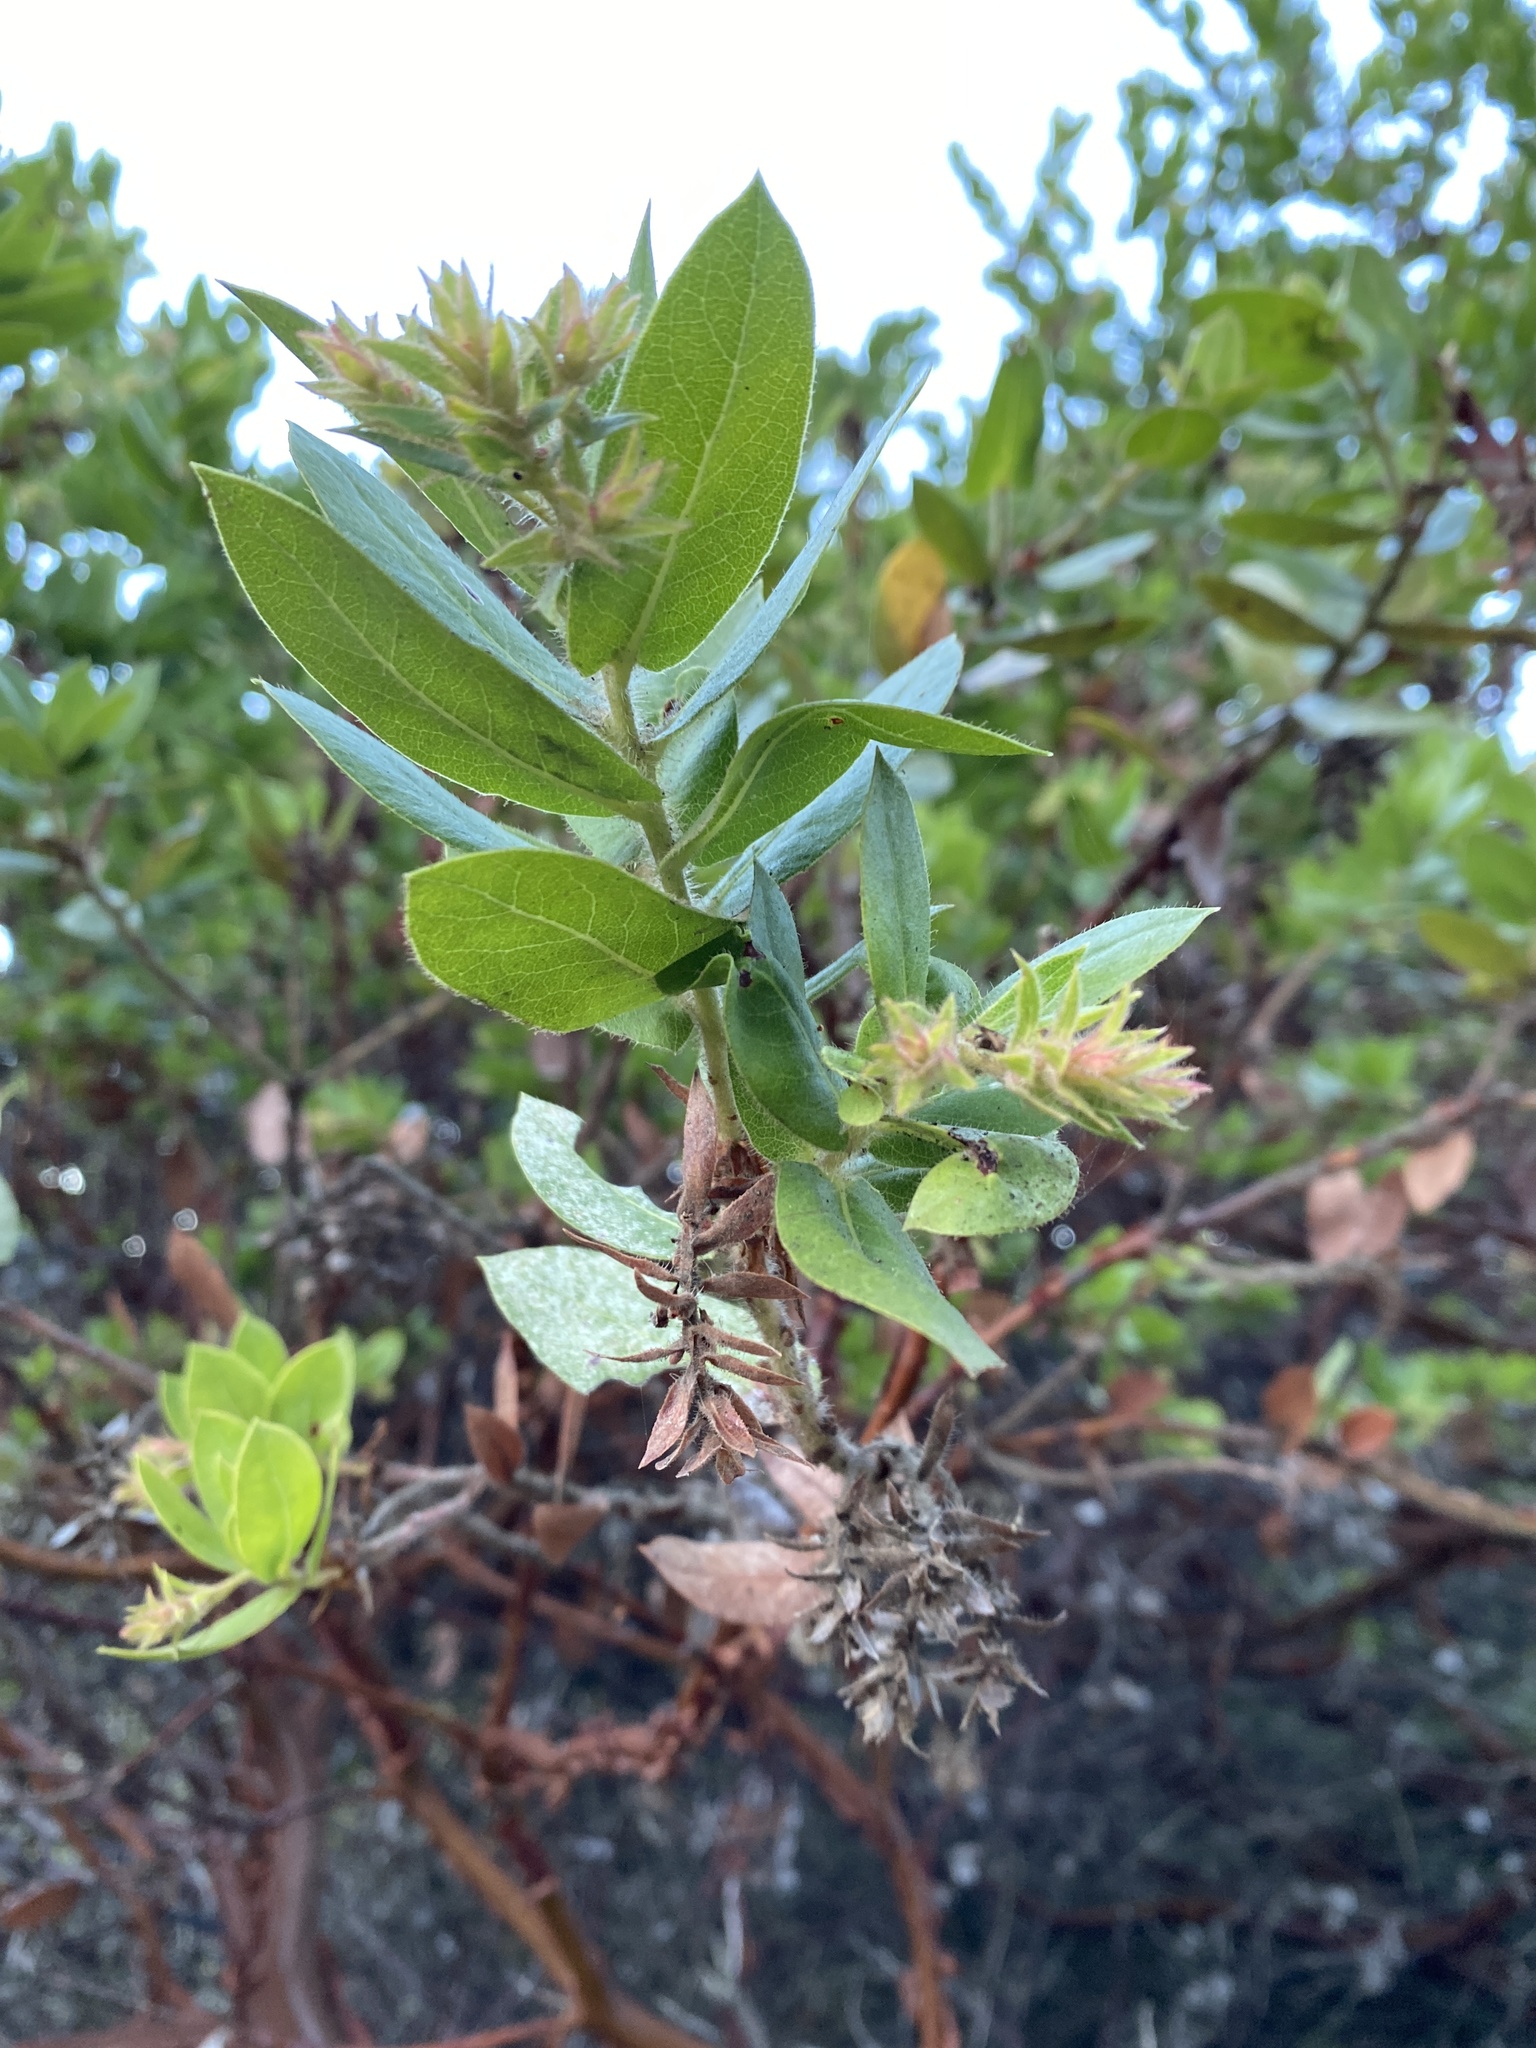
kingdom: Plantae
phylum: Tracheophyta
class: Magnoliopsida
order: Ericales
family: Ericaceae
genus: Arctostaphylos
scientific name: Arctostaphylos montaraensis
